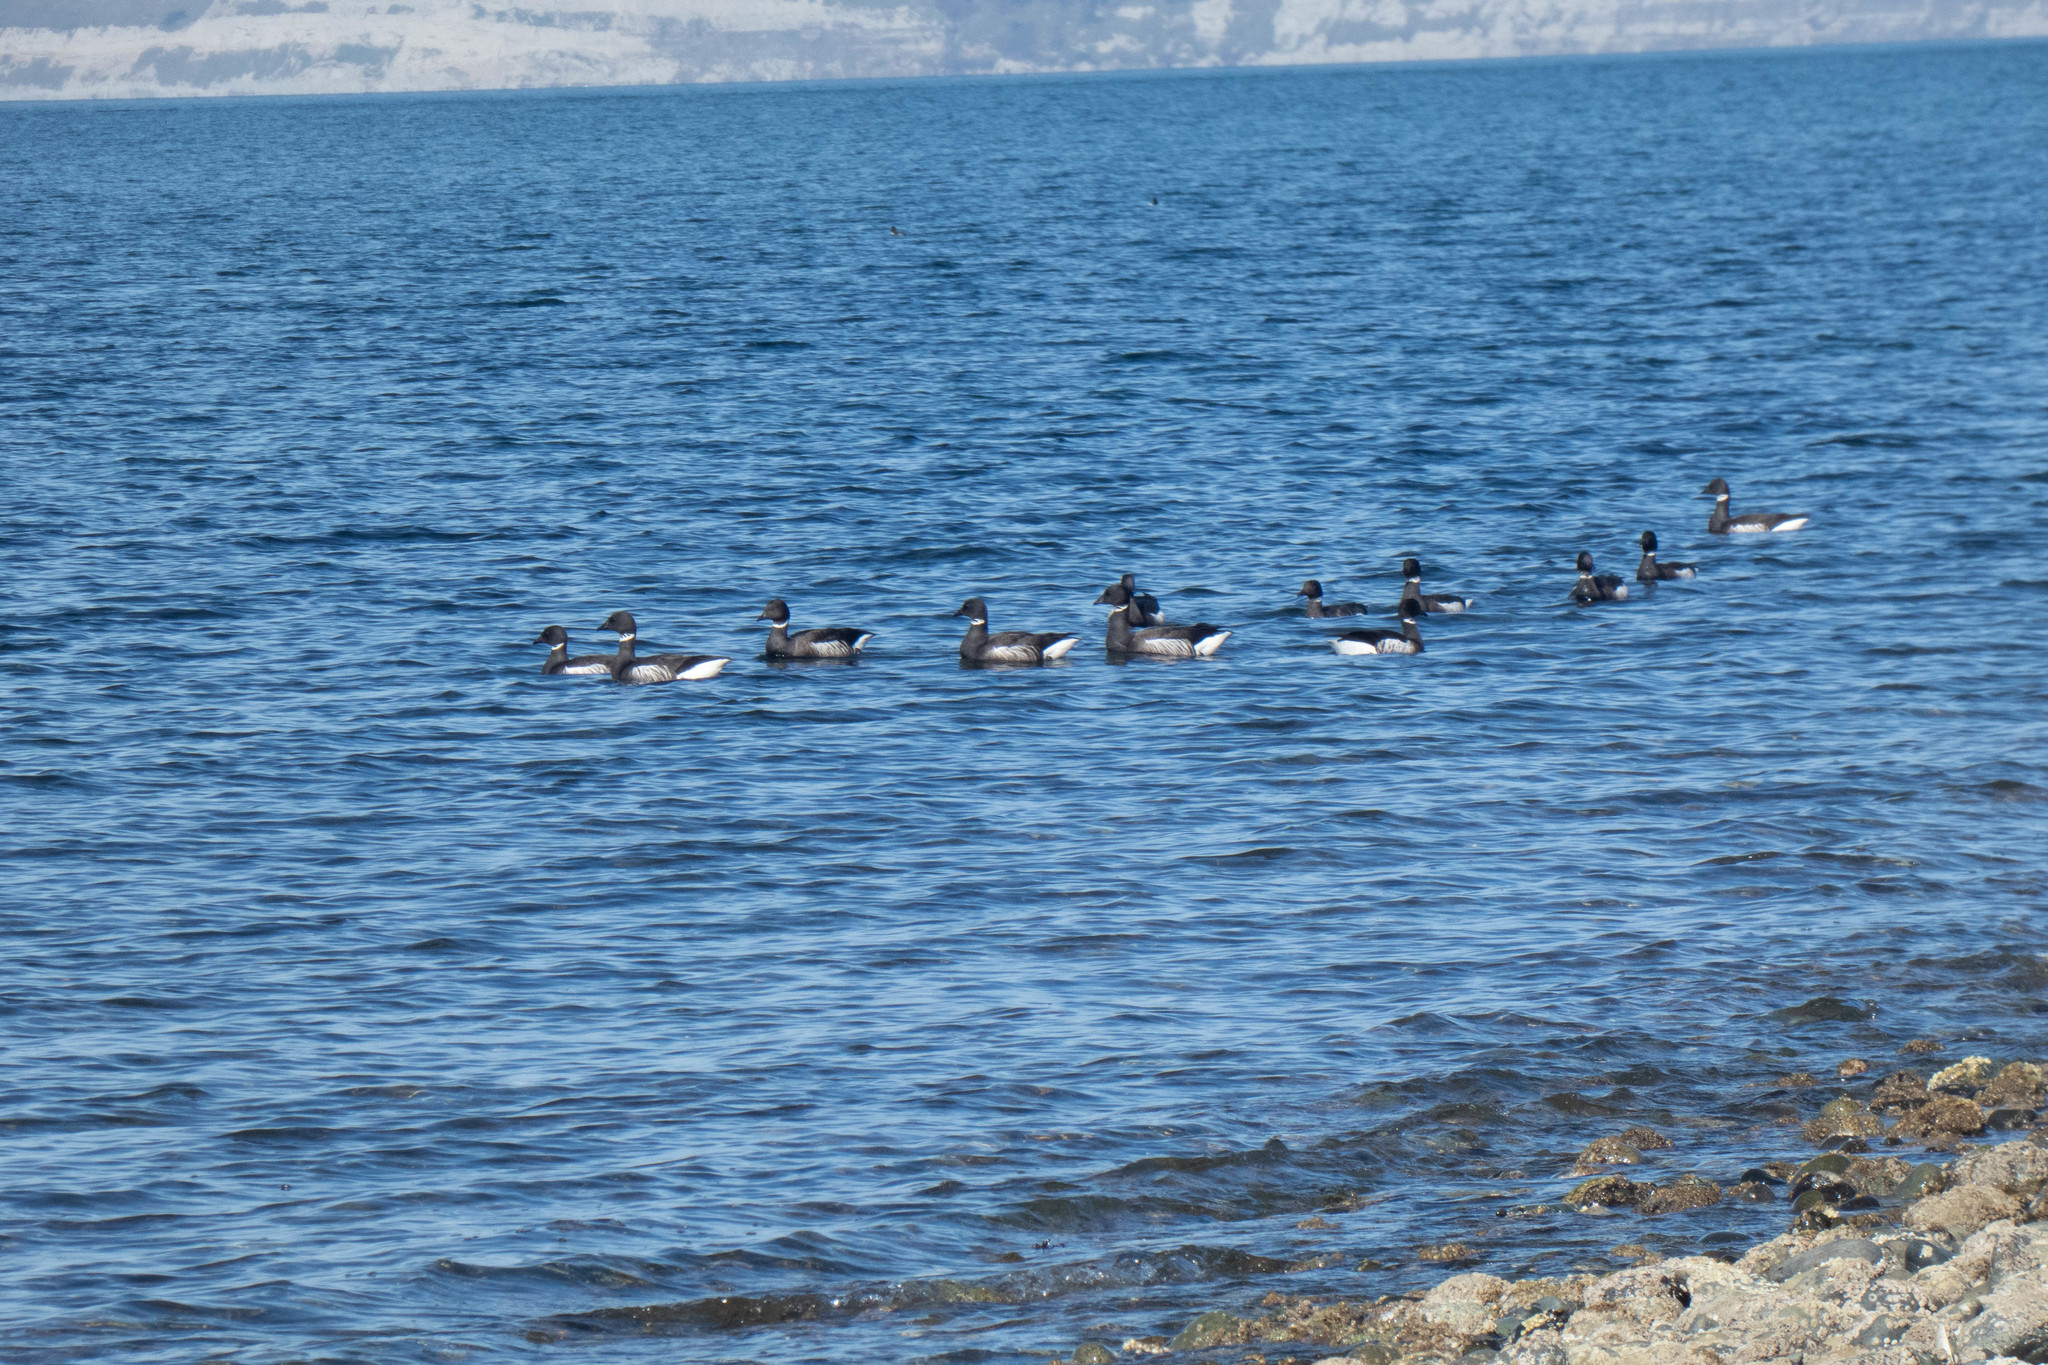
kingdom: Animalia
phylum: Chordata
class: Aves
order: Anseriformes
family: Anatidae
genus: Branta
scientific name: Branta bernicla
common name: Brant goose
